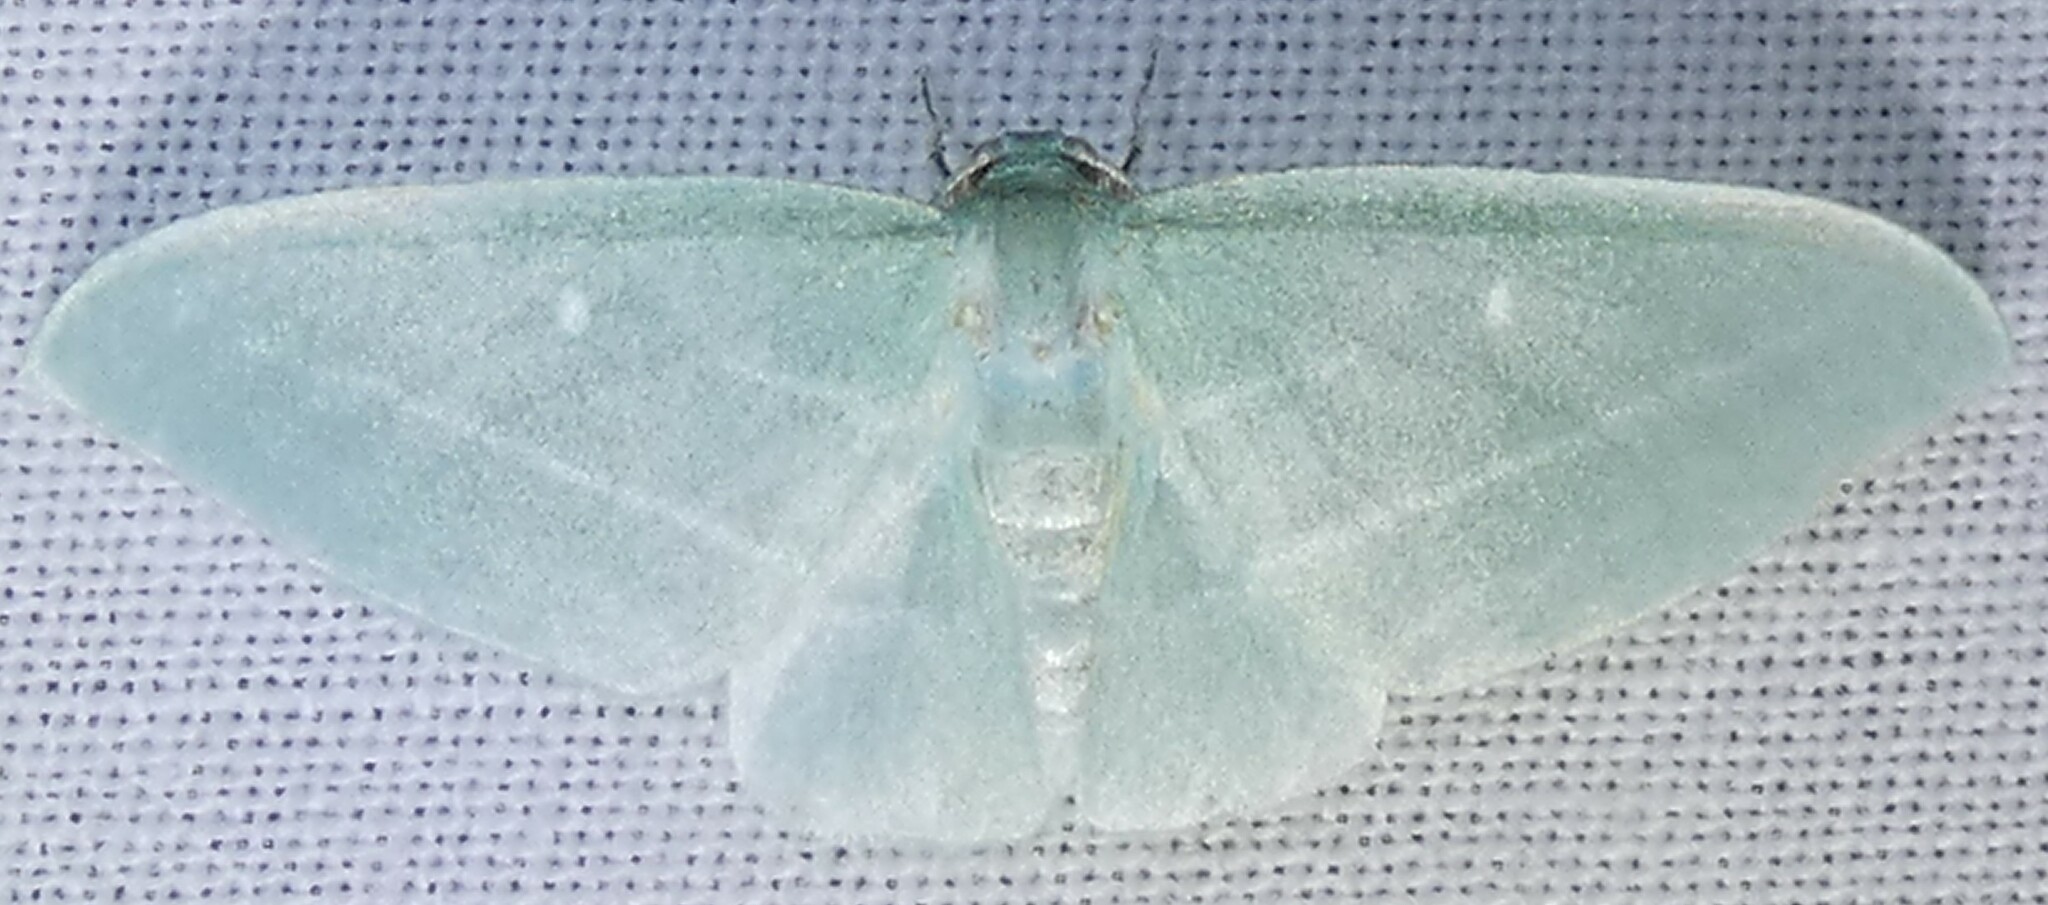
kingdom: Animalia
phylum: Arthropoda
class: Insecta
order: Lepidoptera
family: Geometridae
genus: Dyspteris
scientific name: Dyspteris abortivaria
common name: Bad-wing
